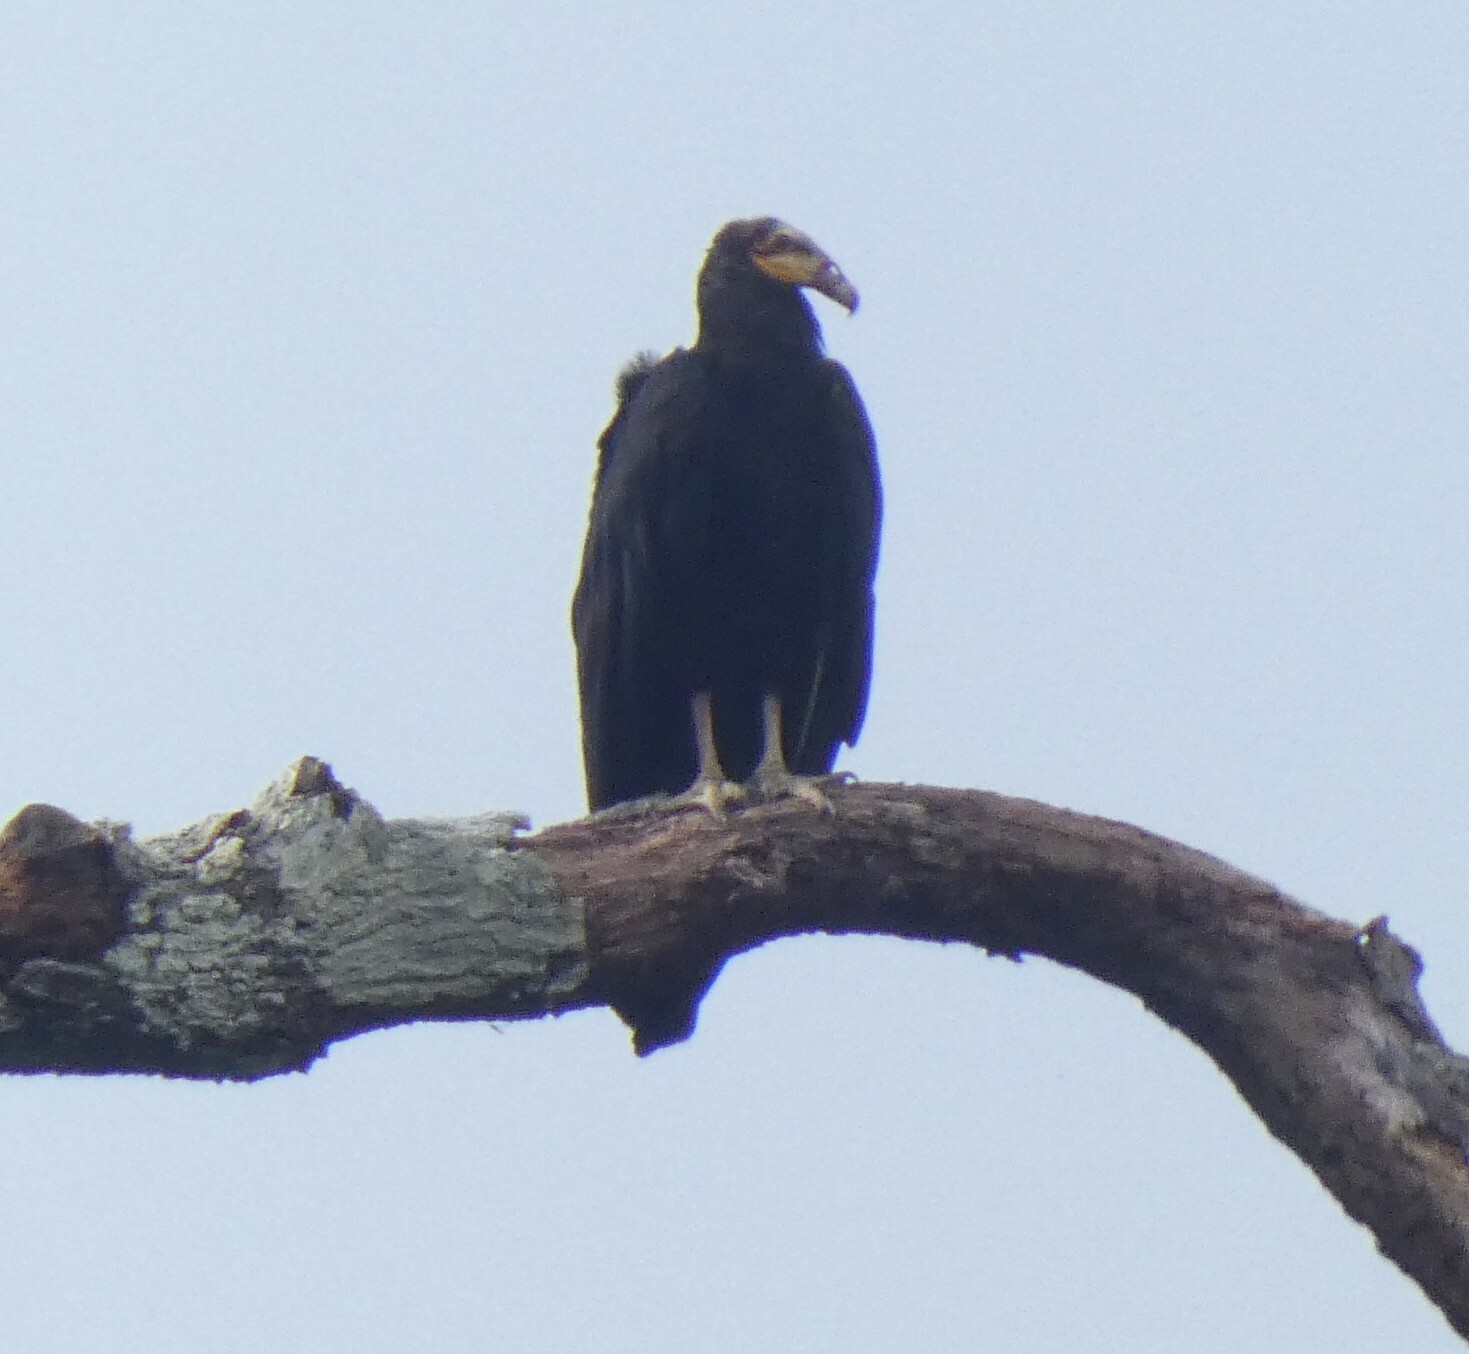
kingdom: Animalia
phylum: Chordata
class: Aves
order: Accipitriformes
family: Cathartidae
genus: Cathartes
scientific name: Cathartes melambrotus
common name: Greater yellow-headed vulture
